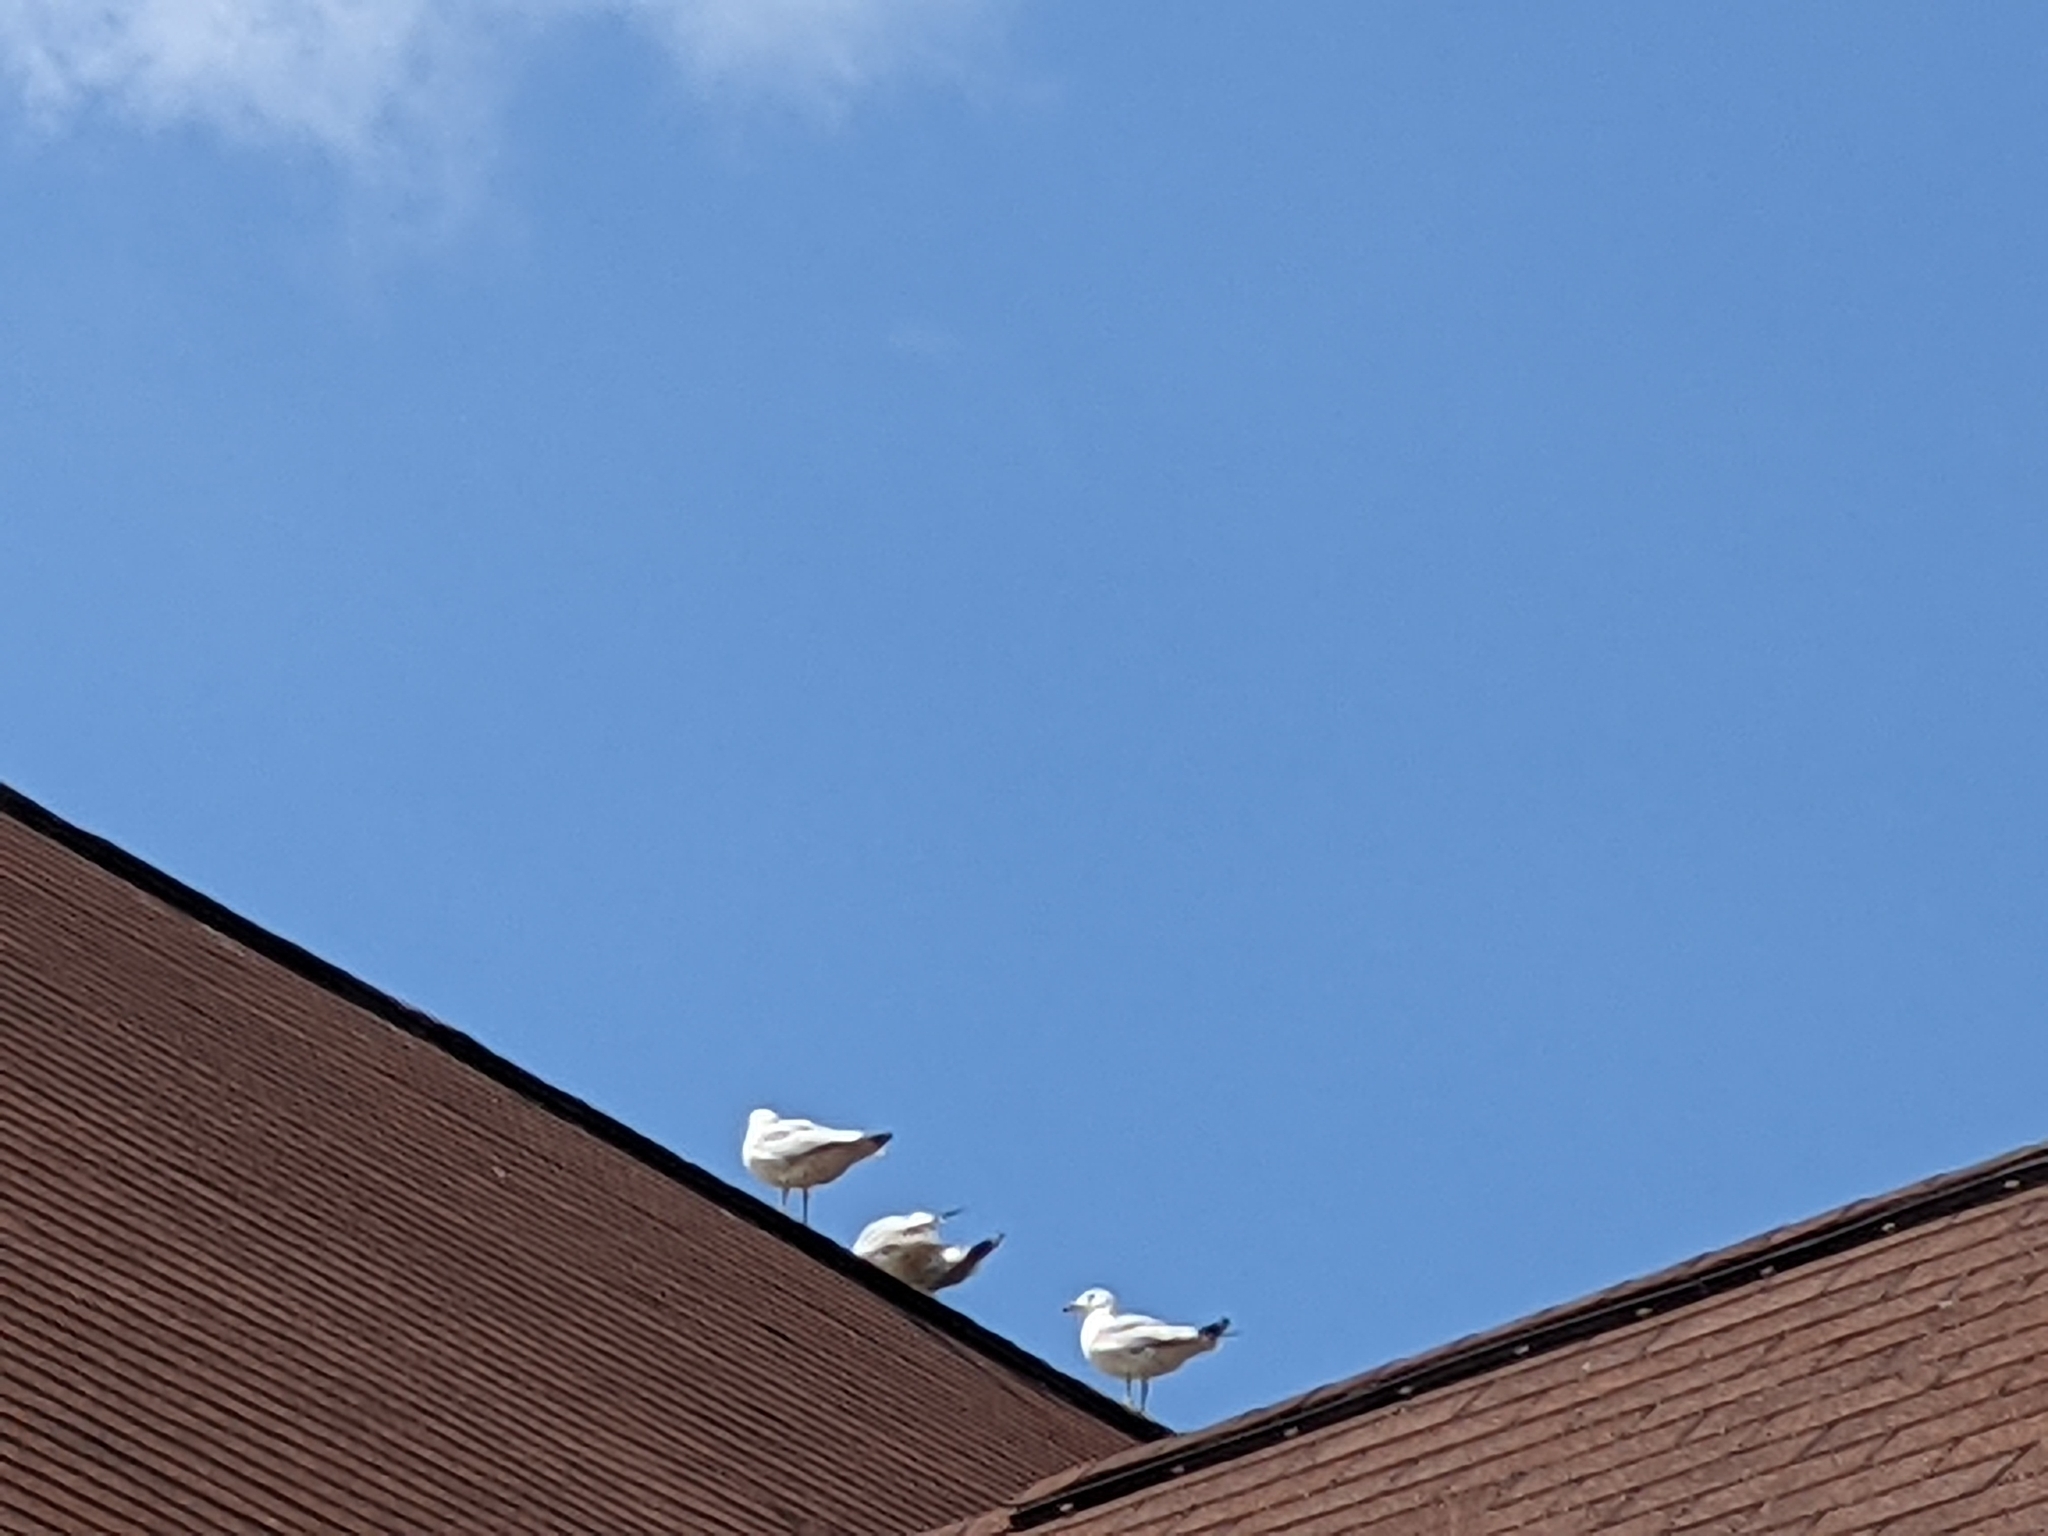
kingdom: Animalia
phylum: Chordata
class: Aves
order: Charadriiformes
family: Laridae
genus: Larus
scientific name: Larus delawarensis
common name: Ring-billed gull
